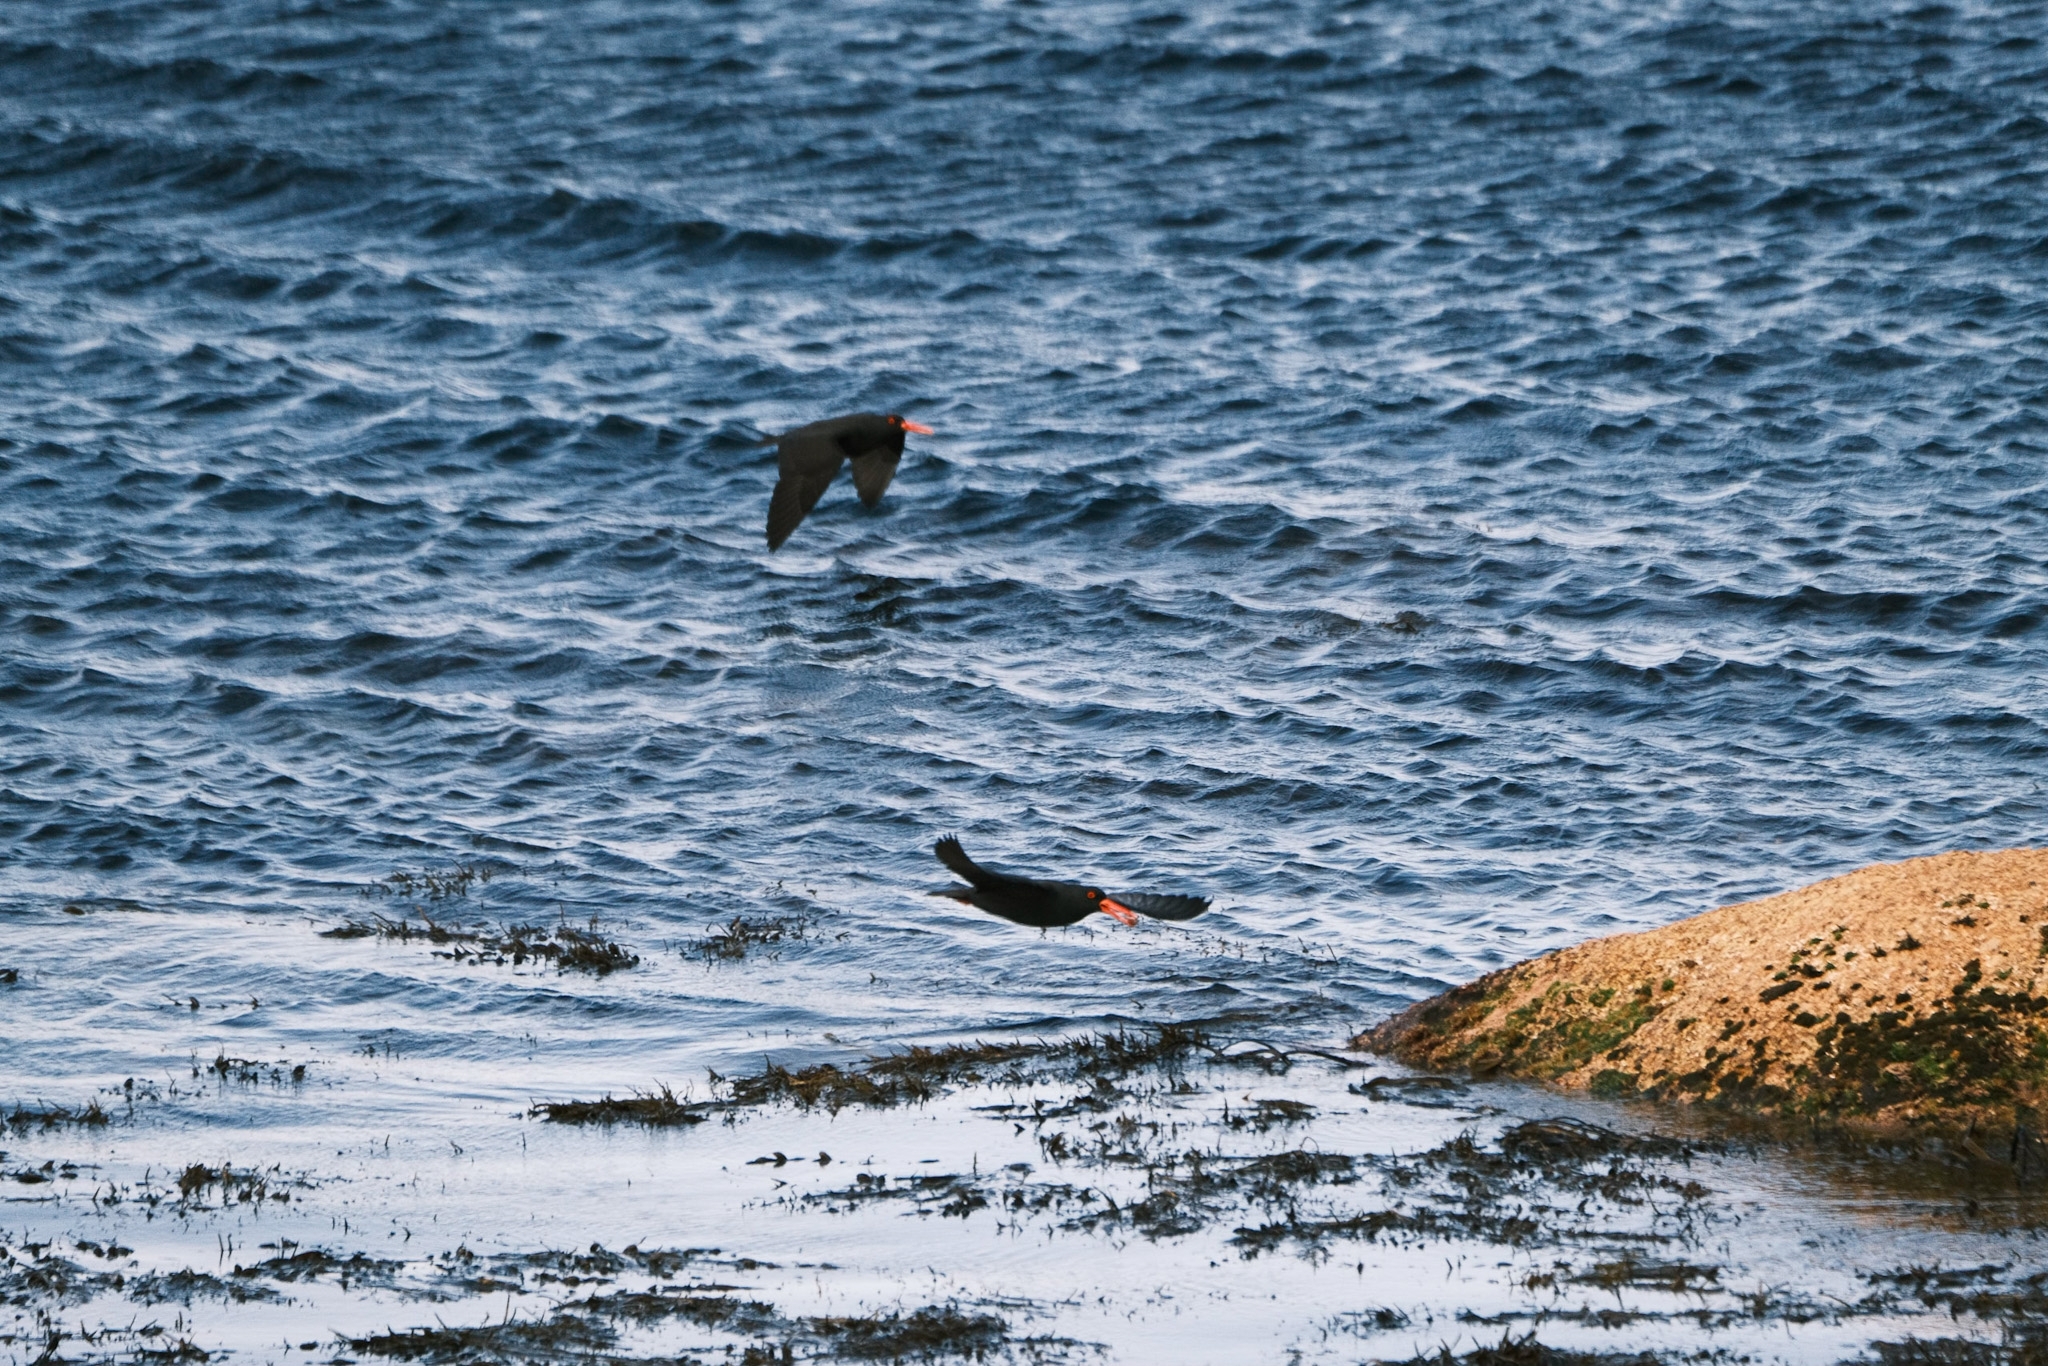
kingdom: Animalia
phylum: Chordata
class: Aves
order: Charadriiformes
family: Haematopodidae
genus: Haematopus
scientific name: Haematopus fuliginosus
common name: Sooty oystercatcher
